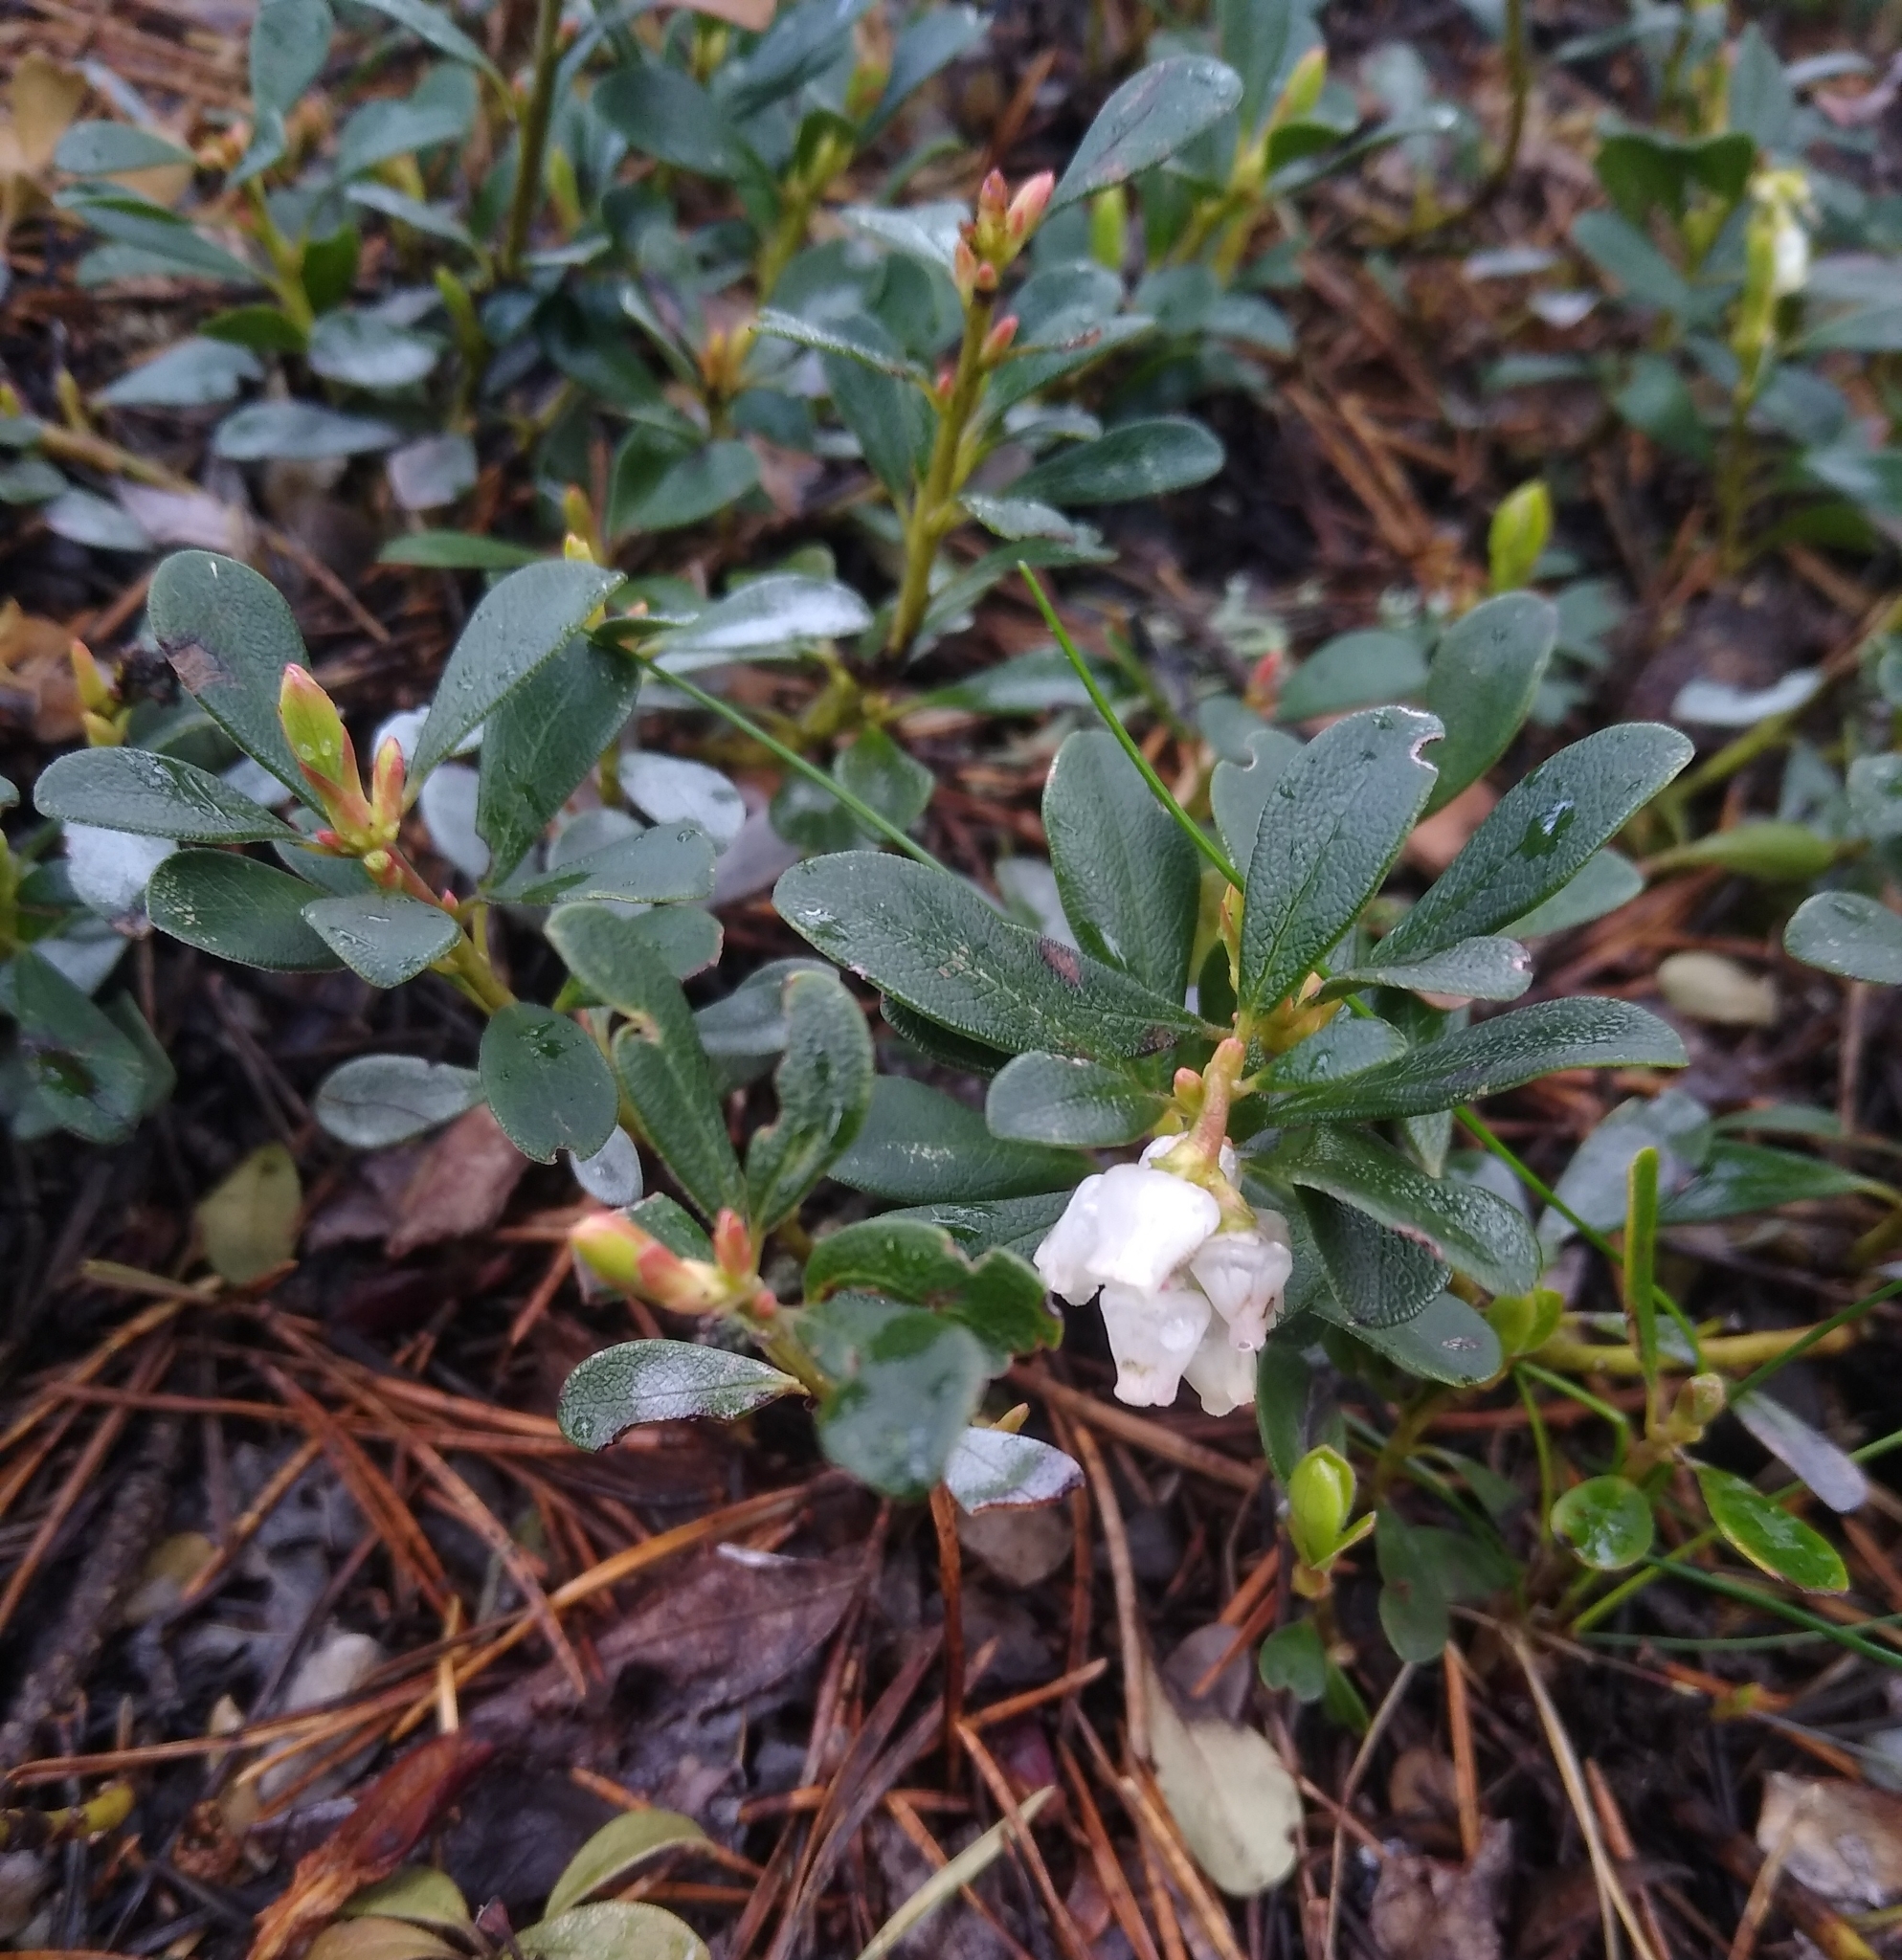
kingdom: Plantae
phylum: Tracheophyta
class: Magnoliopsida
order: Ericales
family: Ericaceae
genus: Arctostaphylos
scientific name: Arctostaphylos uva-ursi
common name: Bearberry
